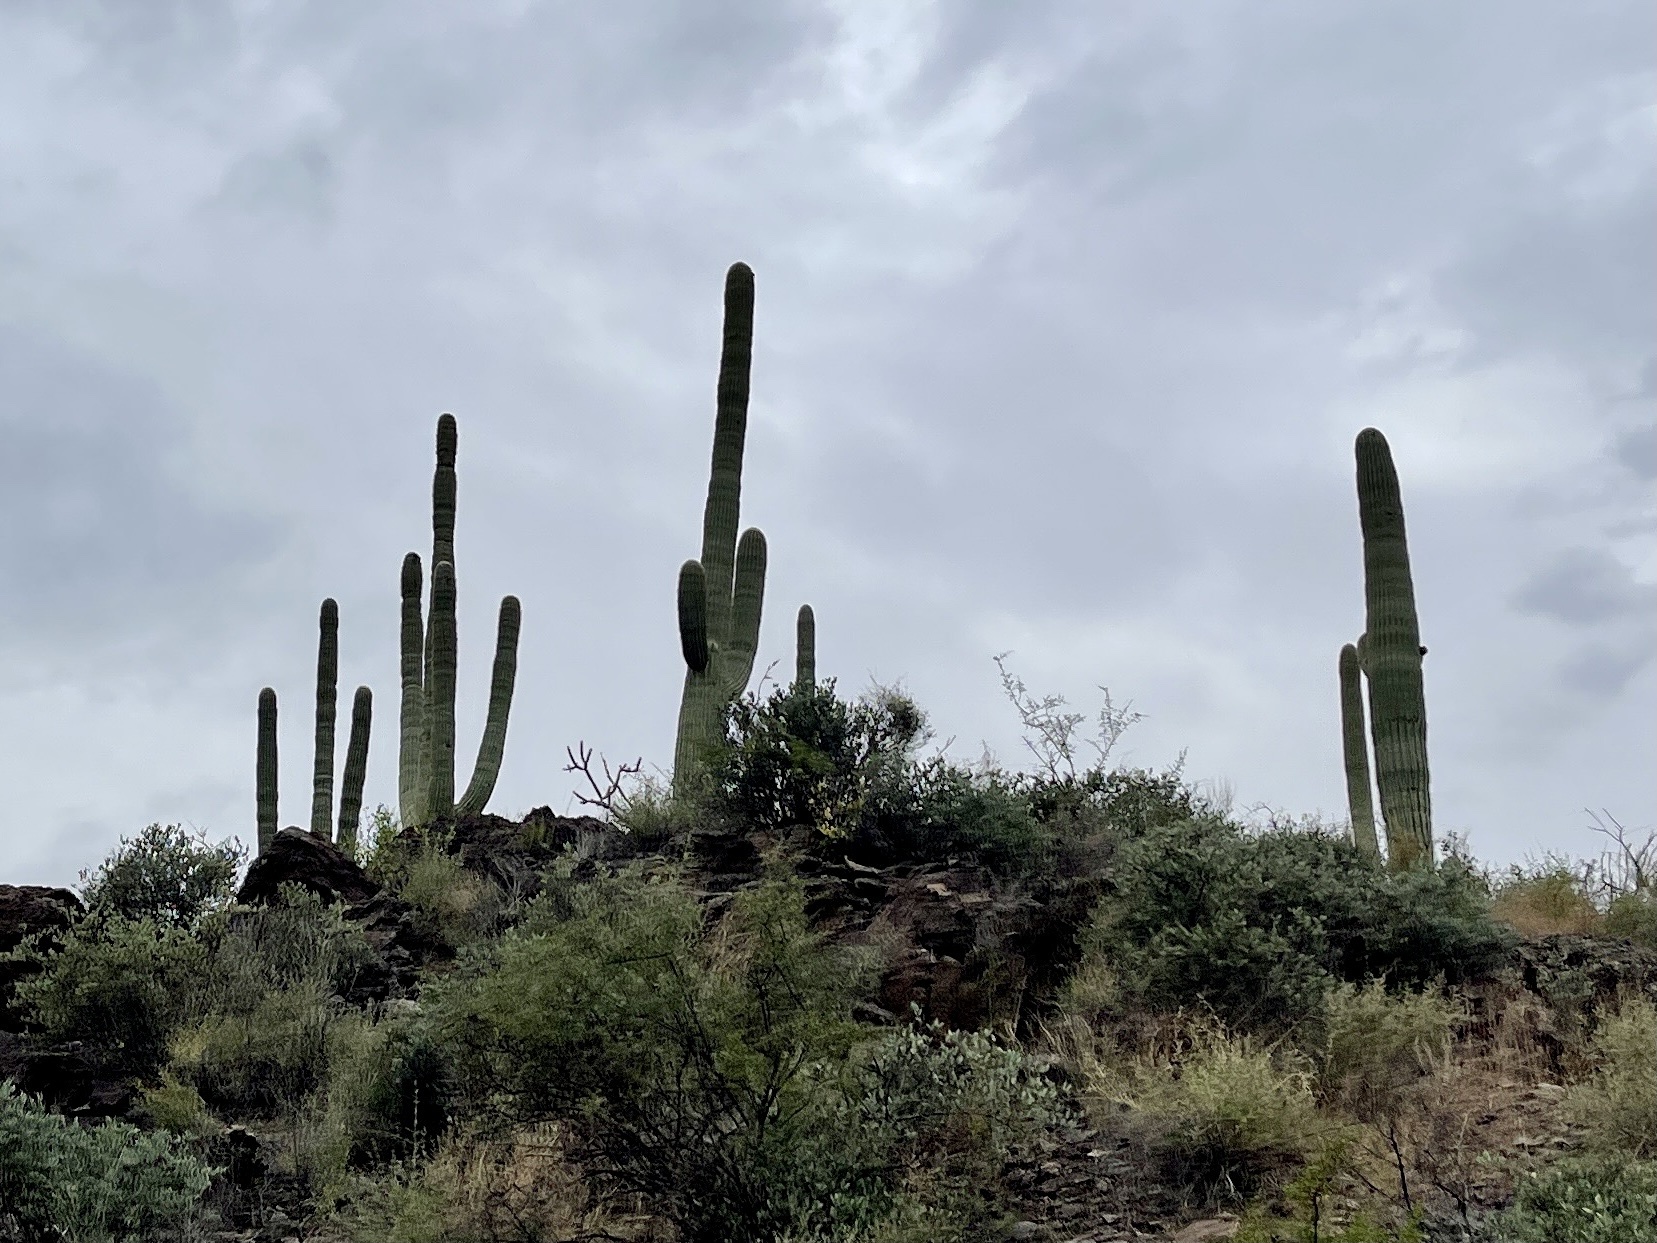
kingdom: Plantae
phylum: Tracheophyta
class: Magnoliopsida
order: Caryophyllales
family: Cactaceae
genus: Carnegiea
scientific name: Carnegiea gigantea
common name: Saguaro
